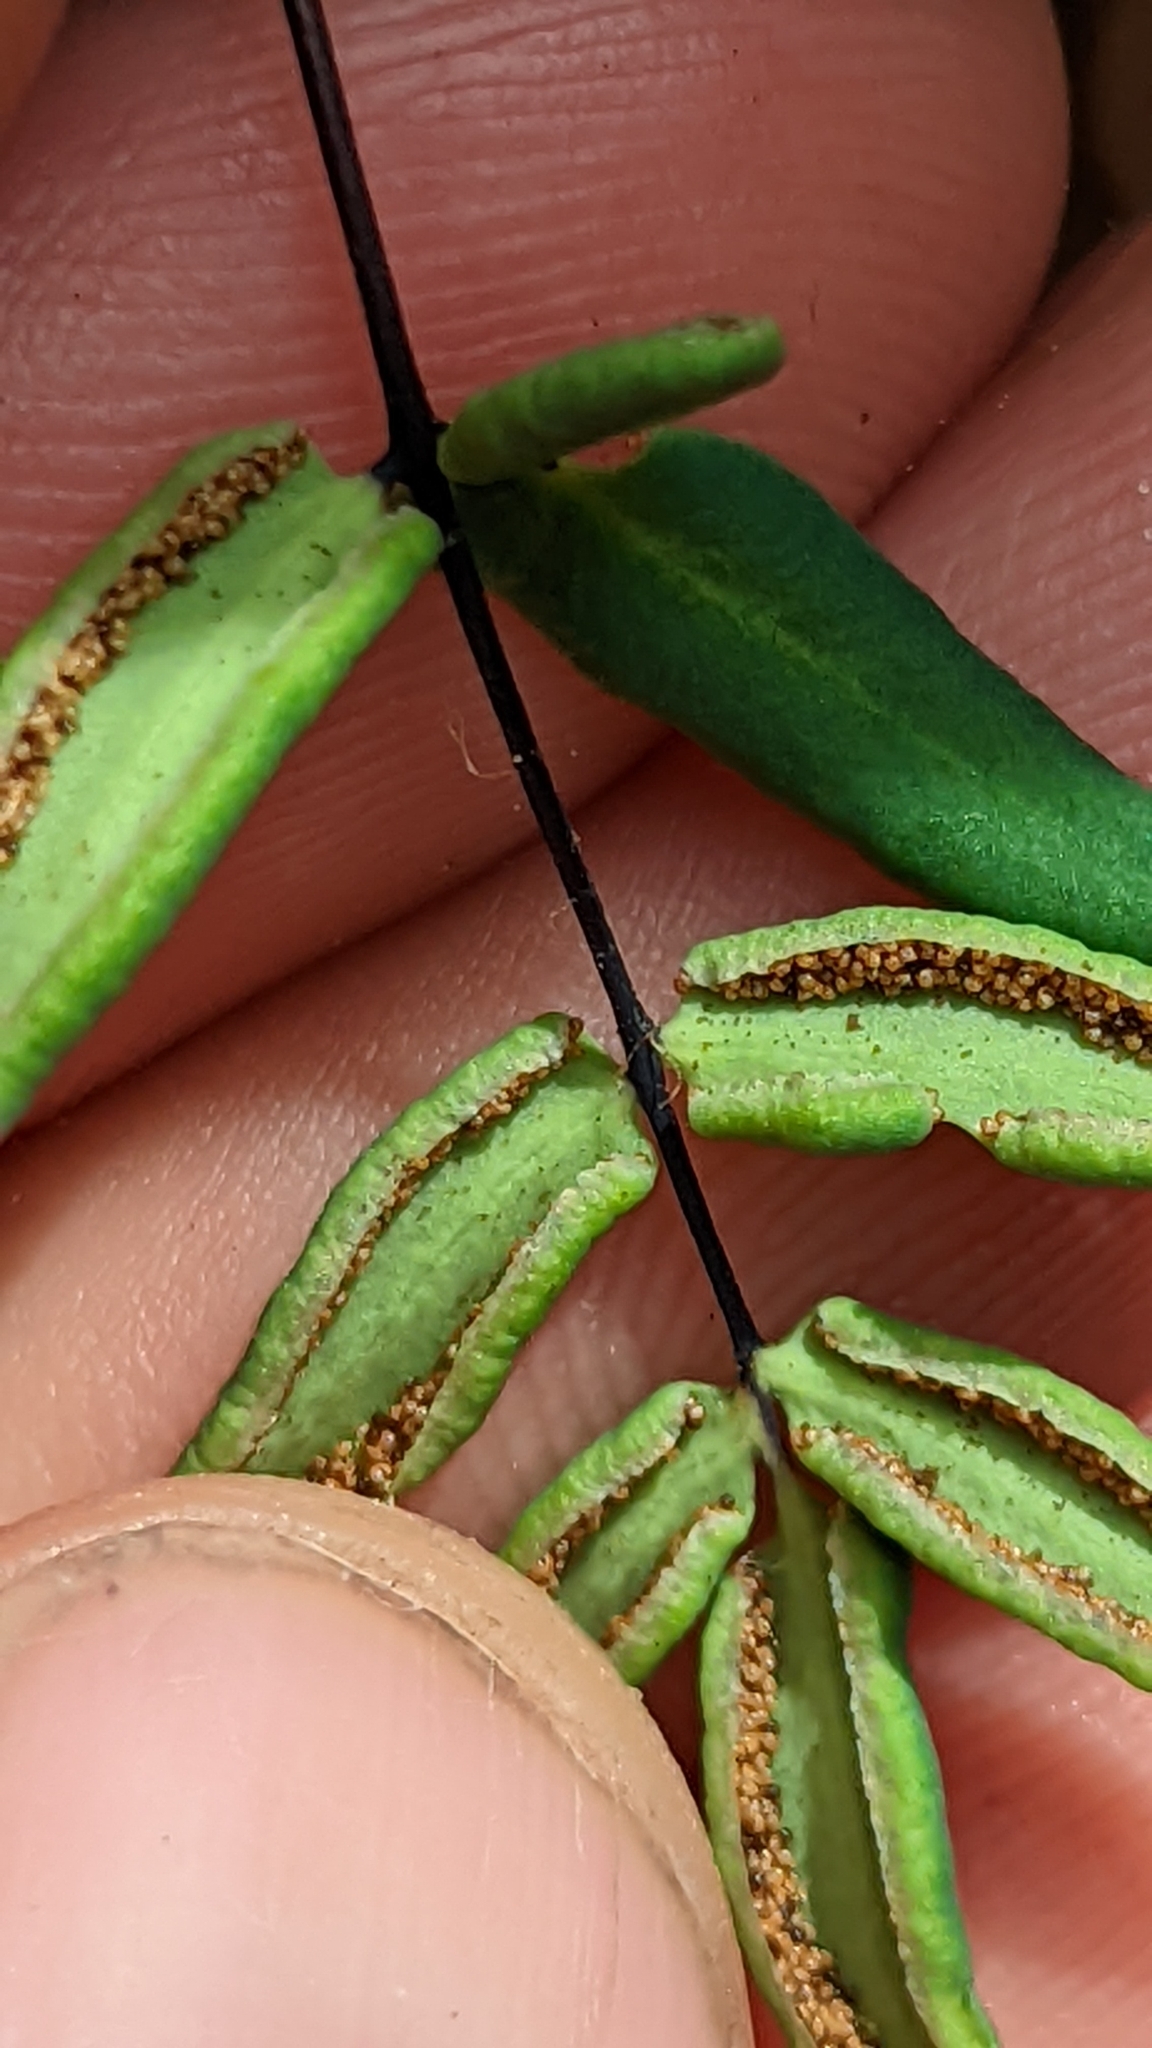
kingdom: Plantae
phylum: Tracheophyta
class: Polypodiopsida
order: Polypodiales
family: Pteridaceae
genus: Pellaea
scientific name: Pellaea glabella
